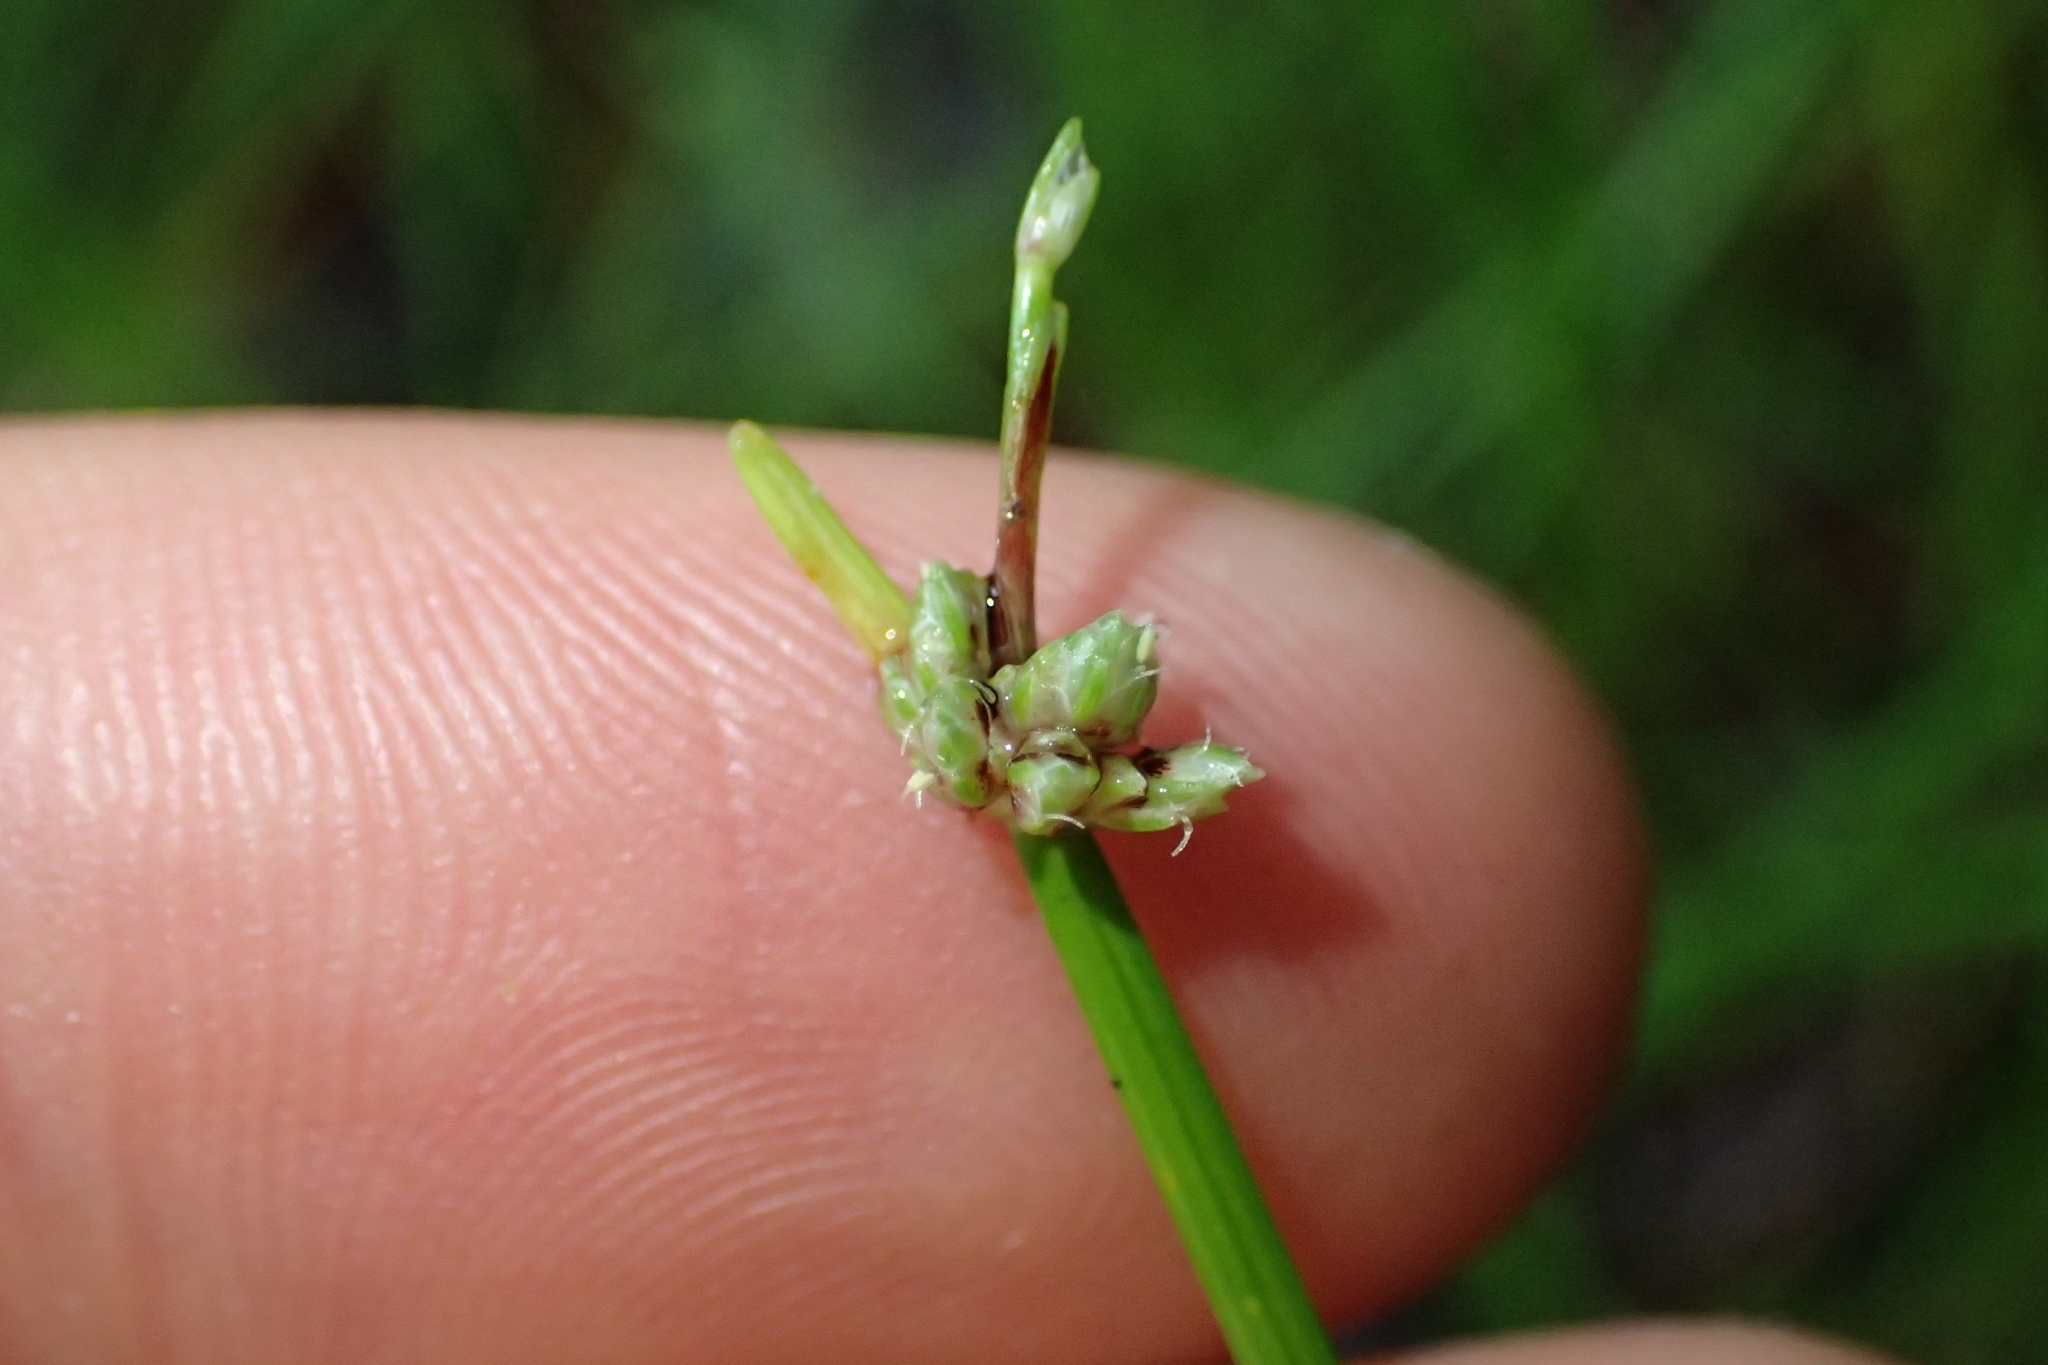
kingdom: Plantae
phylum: Tracheophyta
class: Liliopsida
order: Poales
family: Cyperaceae
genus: Isolepis
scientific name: Isolepis prolifera
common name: Proliferating bulrush
